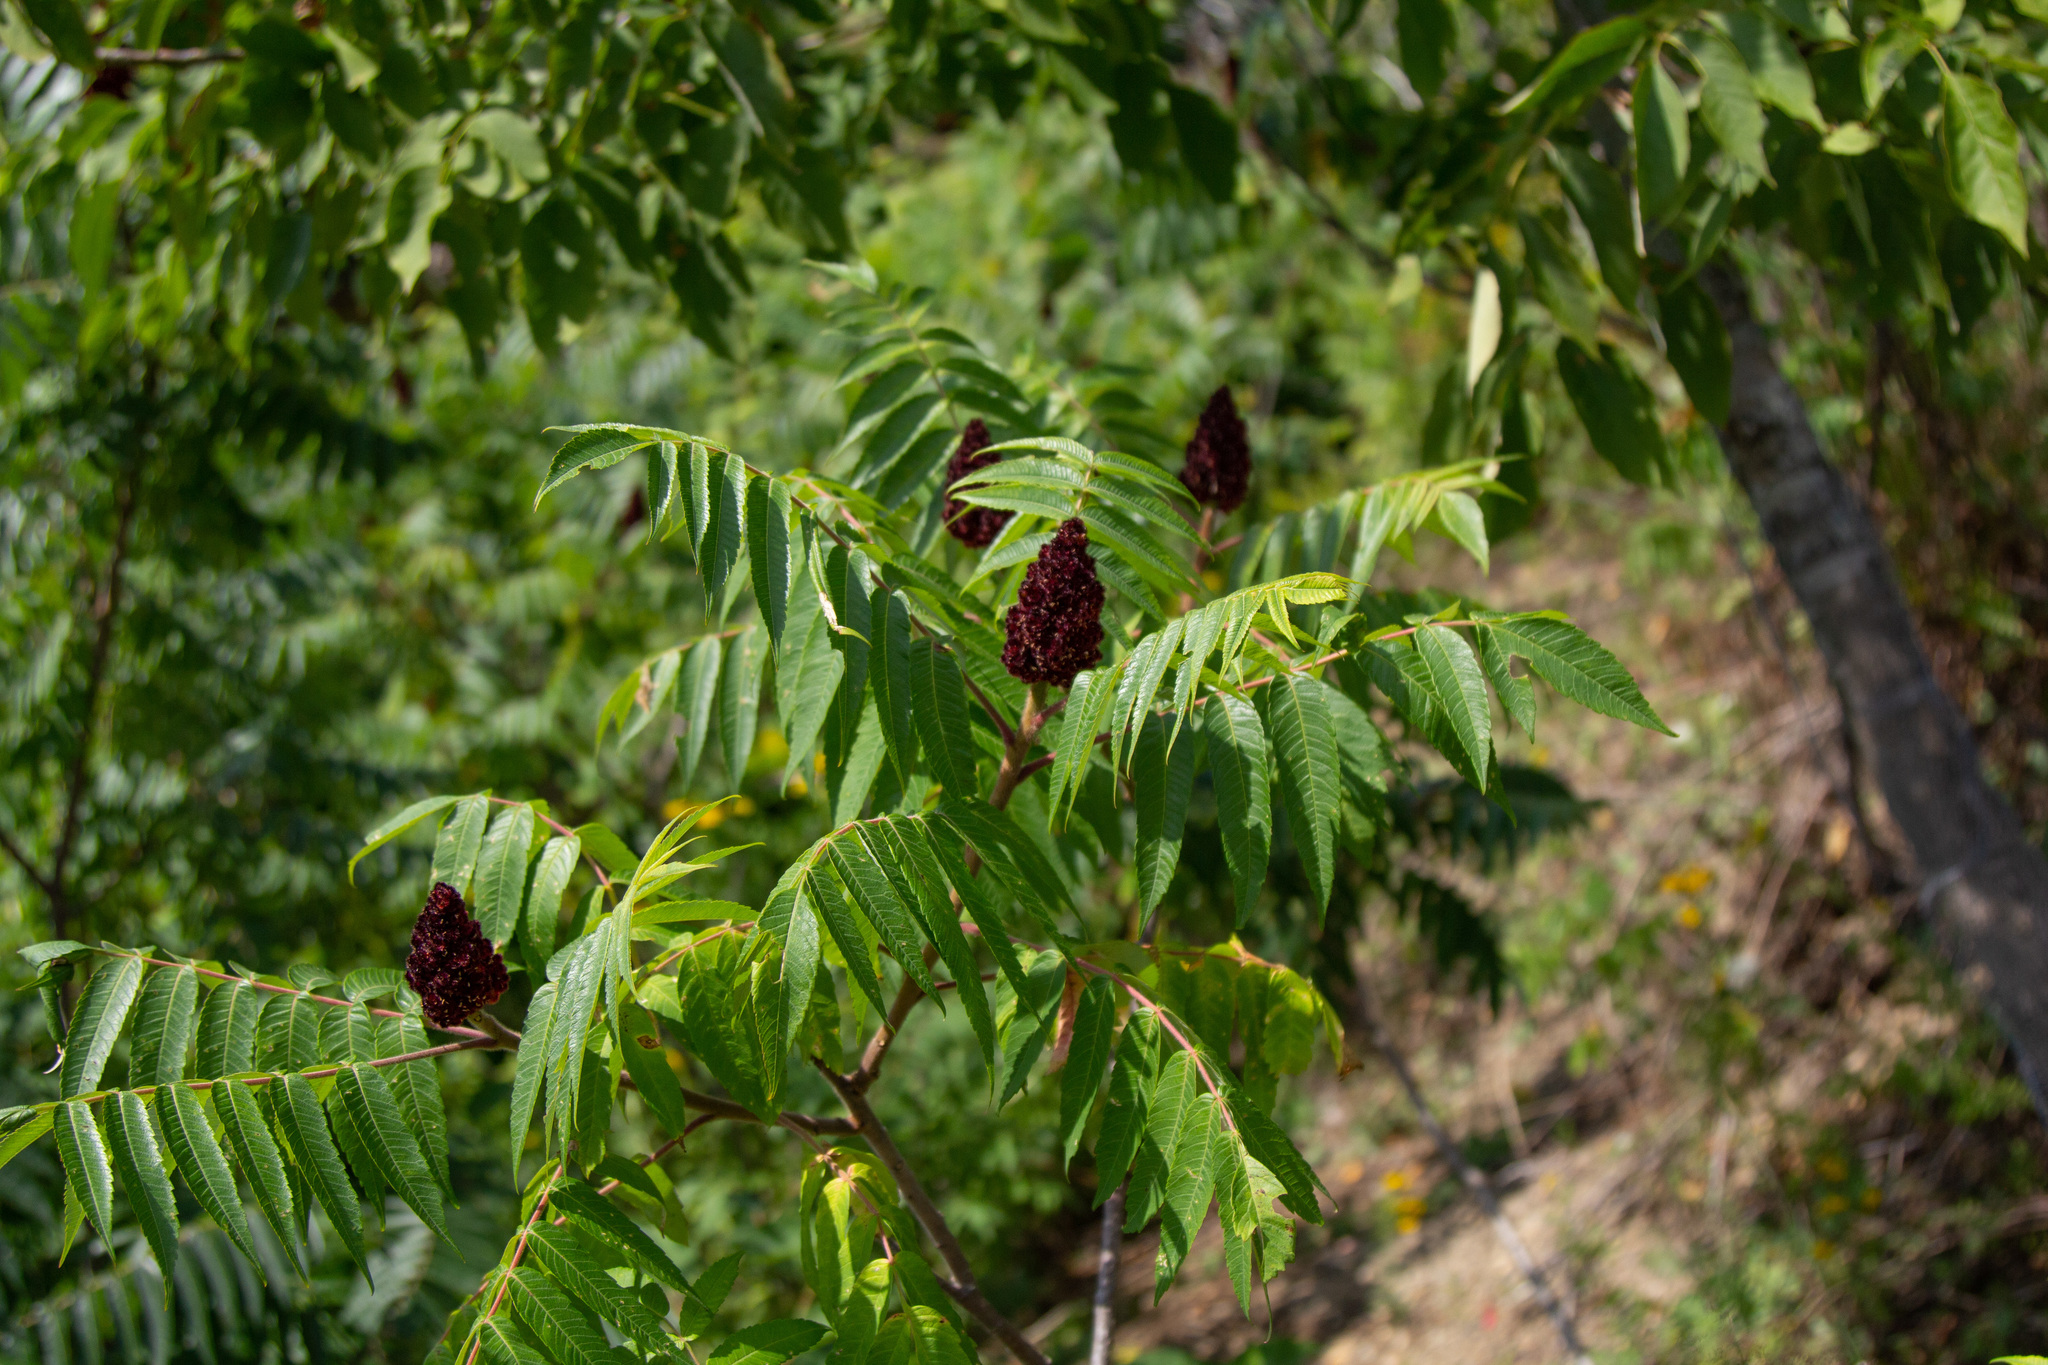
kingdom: Plantae
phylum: Tracheophyta
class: Magnoliopsida
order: Sapindales
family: Anacardiaceae
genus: Rhus
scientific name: Rhus typhina
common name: Staghorn sumac
